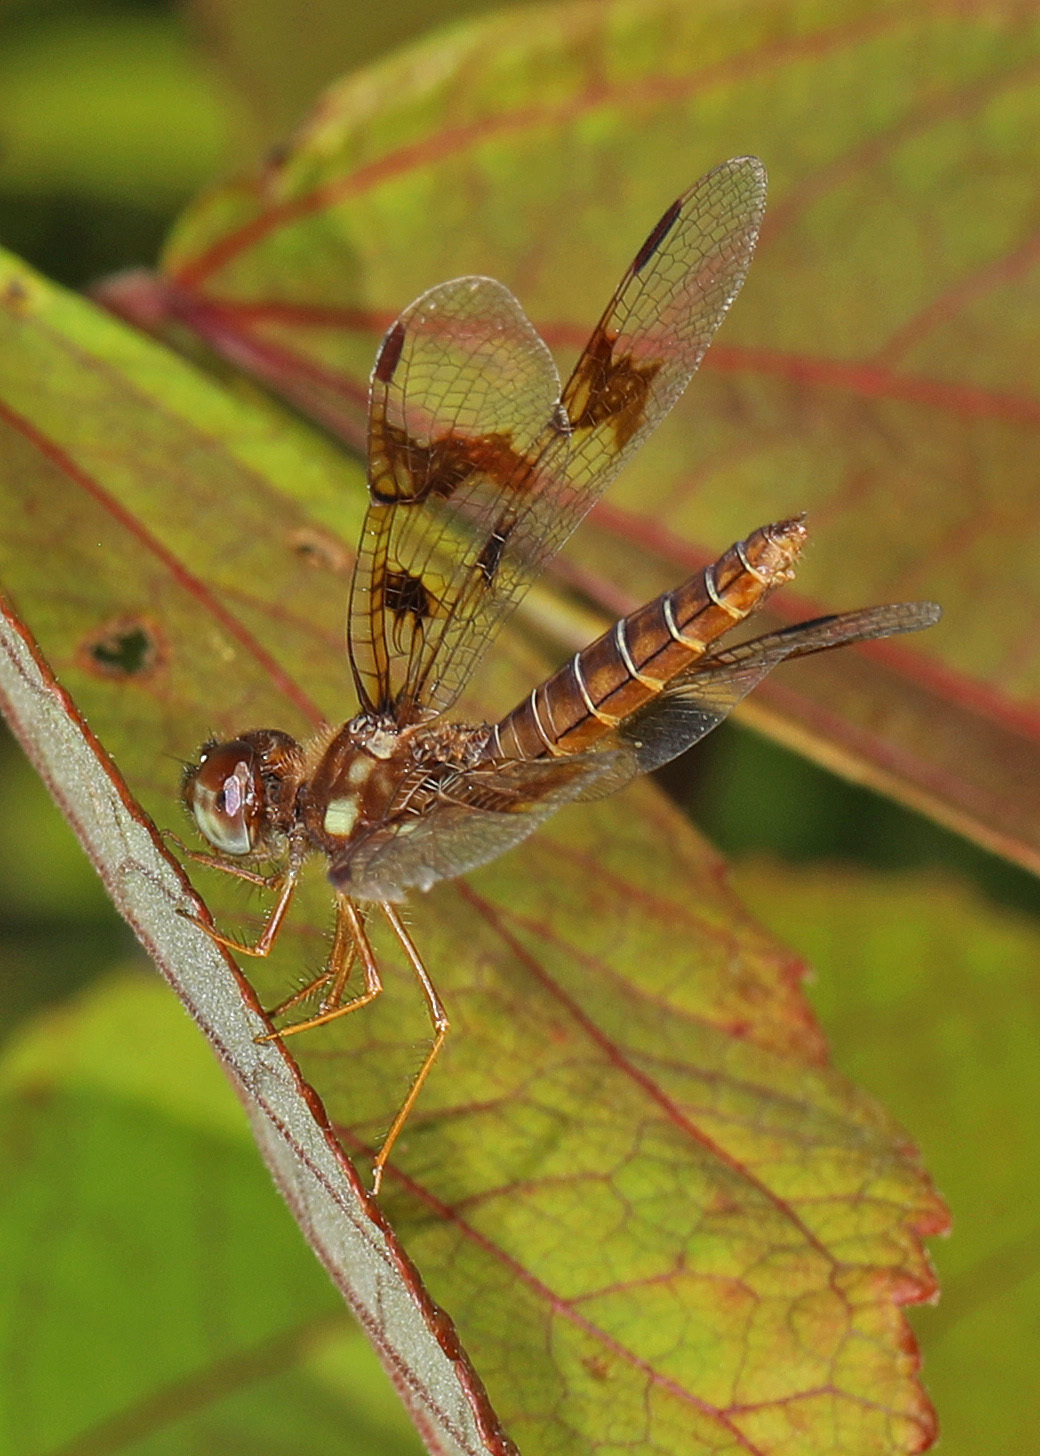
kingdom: Animalia
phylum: Arthropoda
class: Insecta
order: Odonata
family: Libellulidae
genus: Perithemis
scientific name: Perithemis tenera
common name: Eastern amberwing
